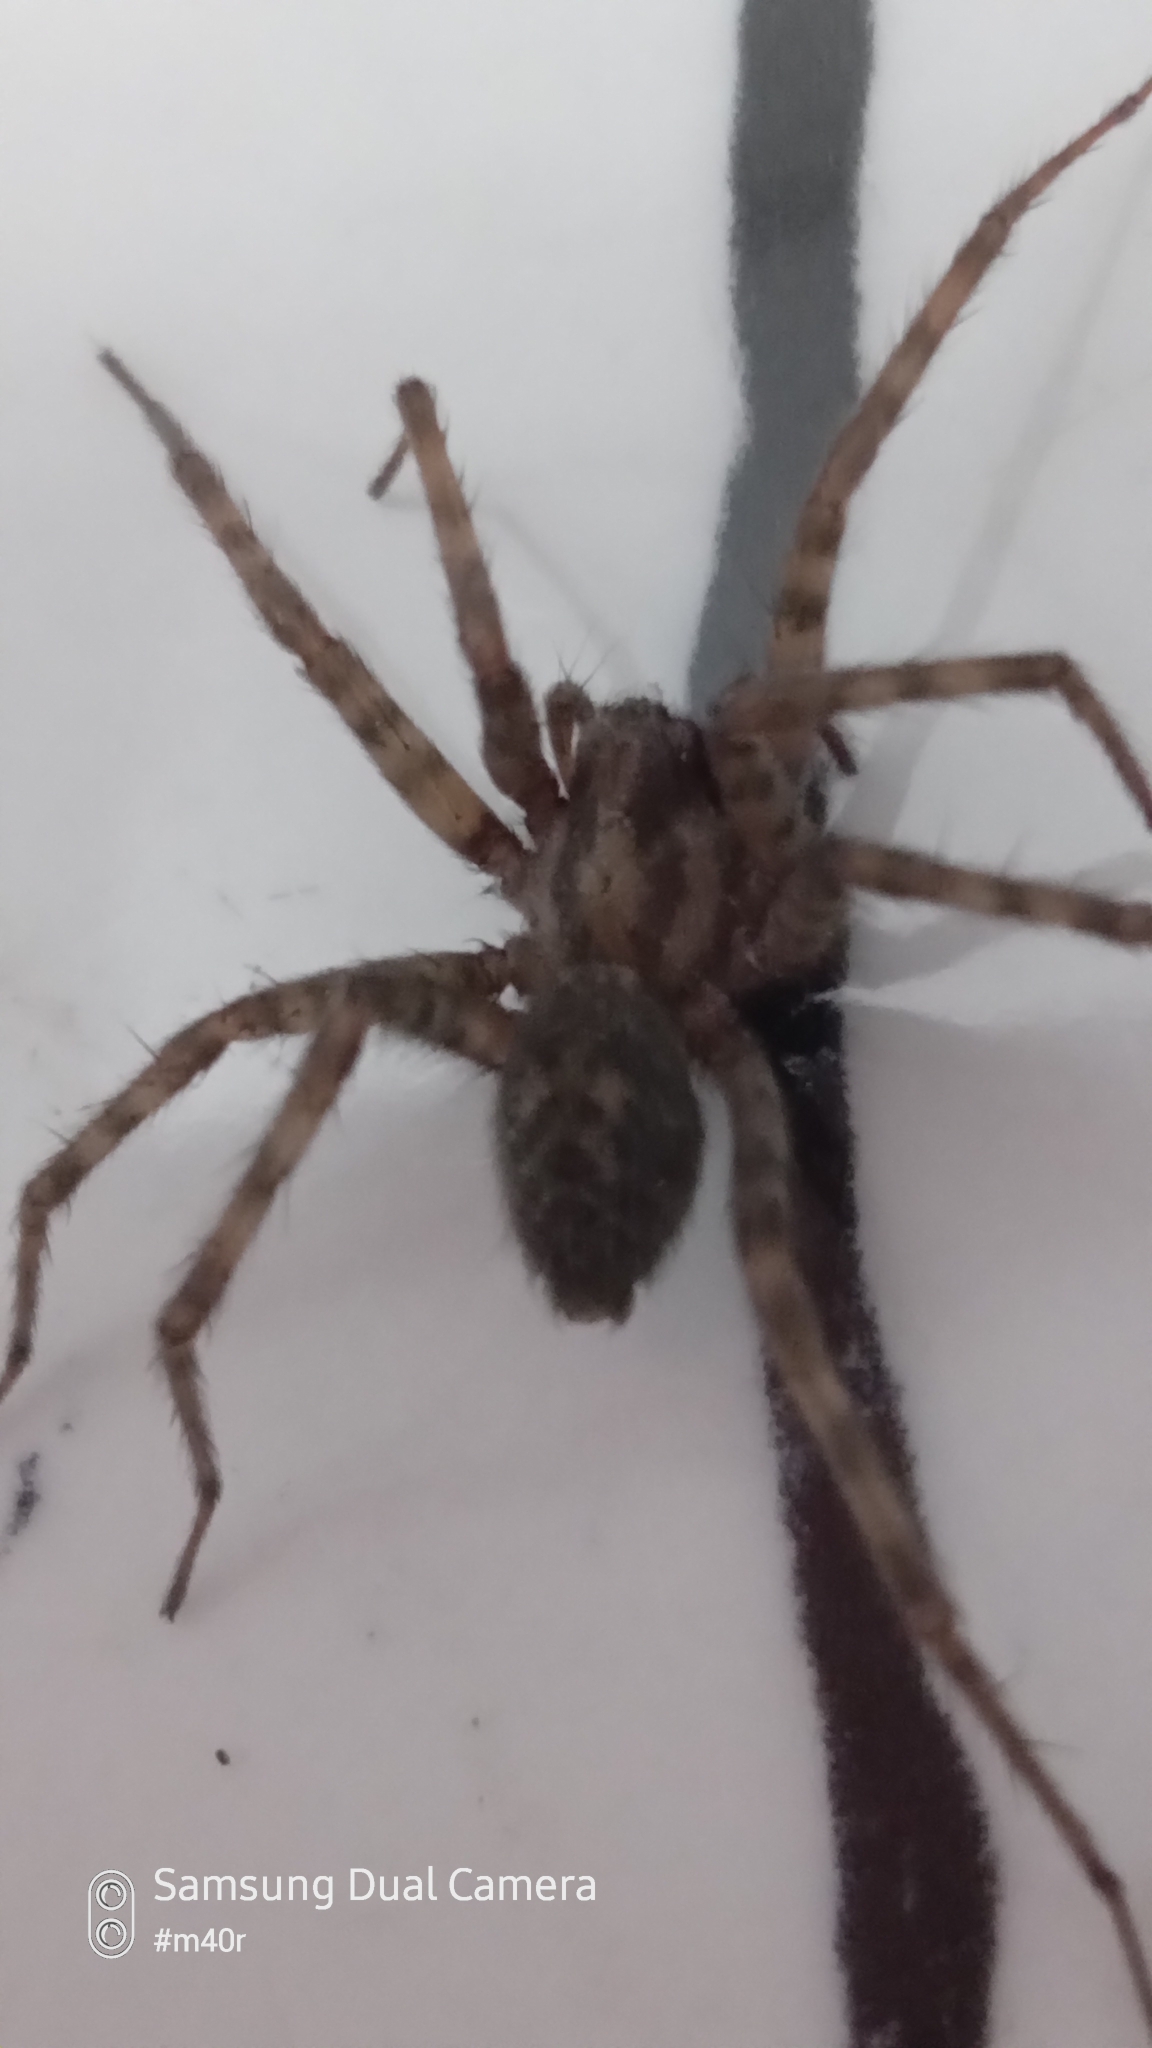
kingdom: Animalia
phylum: Arthropoda
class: Arachnida
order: Araneae
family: Agelenidae
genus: Tegenaria
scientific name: Tegenaria domestica
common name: Barn funnel weaver
